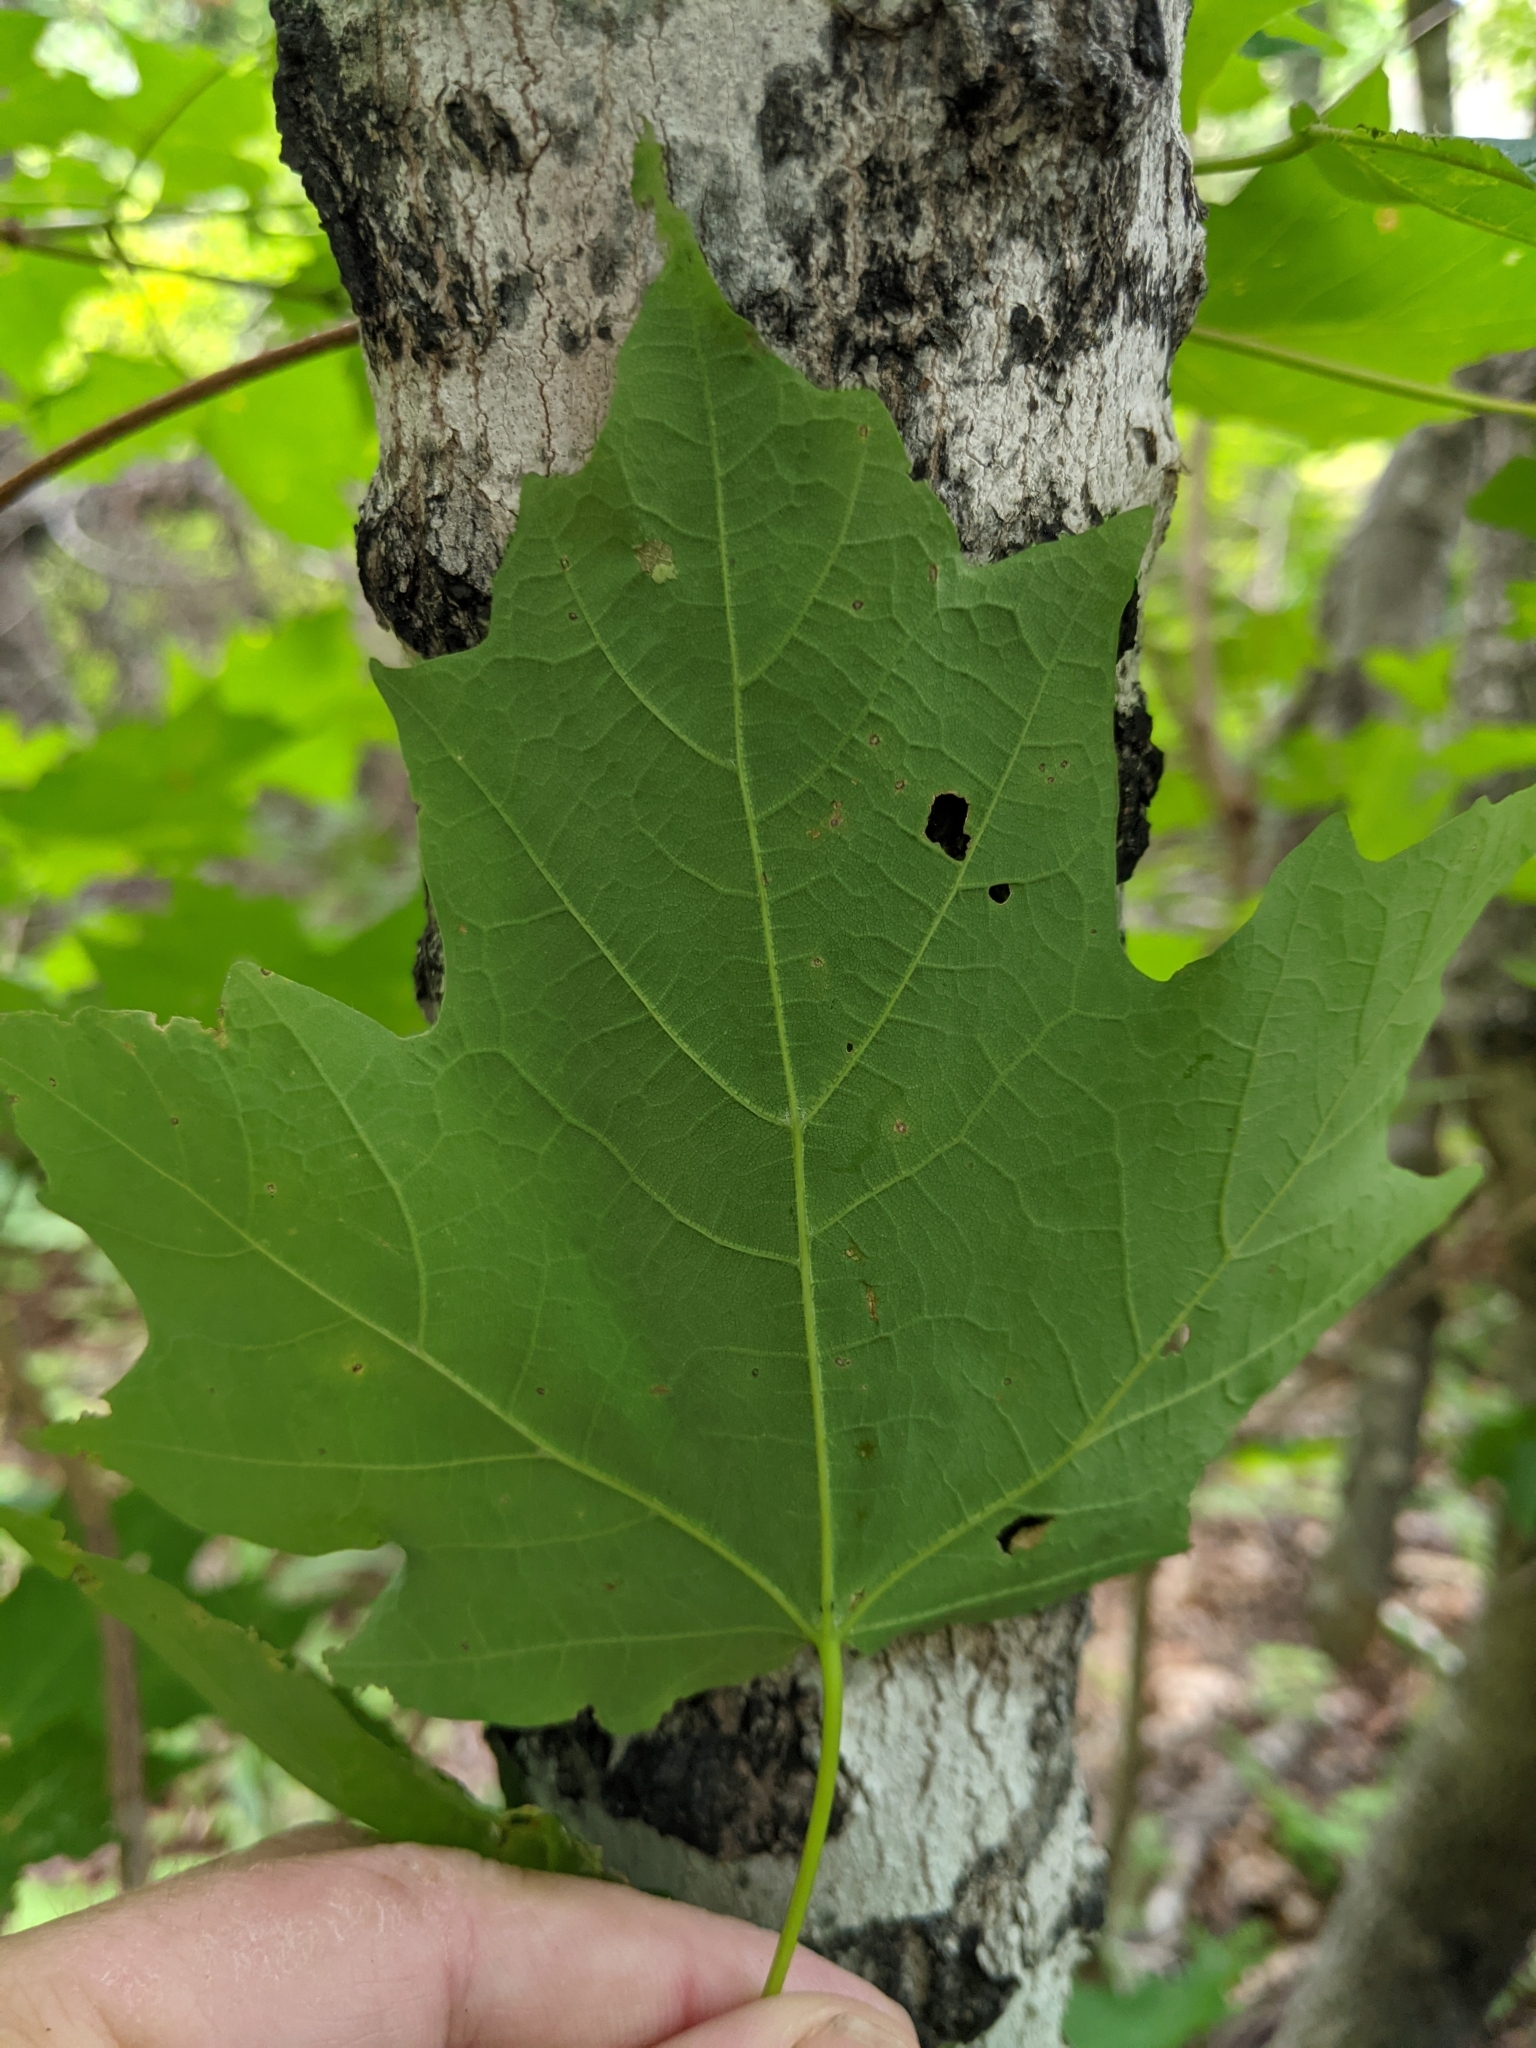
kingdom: Plantae
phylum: Tracheophyta
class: Magnoliopsida
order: Sapindales
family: Sapindaceae
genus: Acer
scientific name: Acer saccharum
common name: Sugar maple
